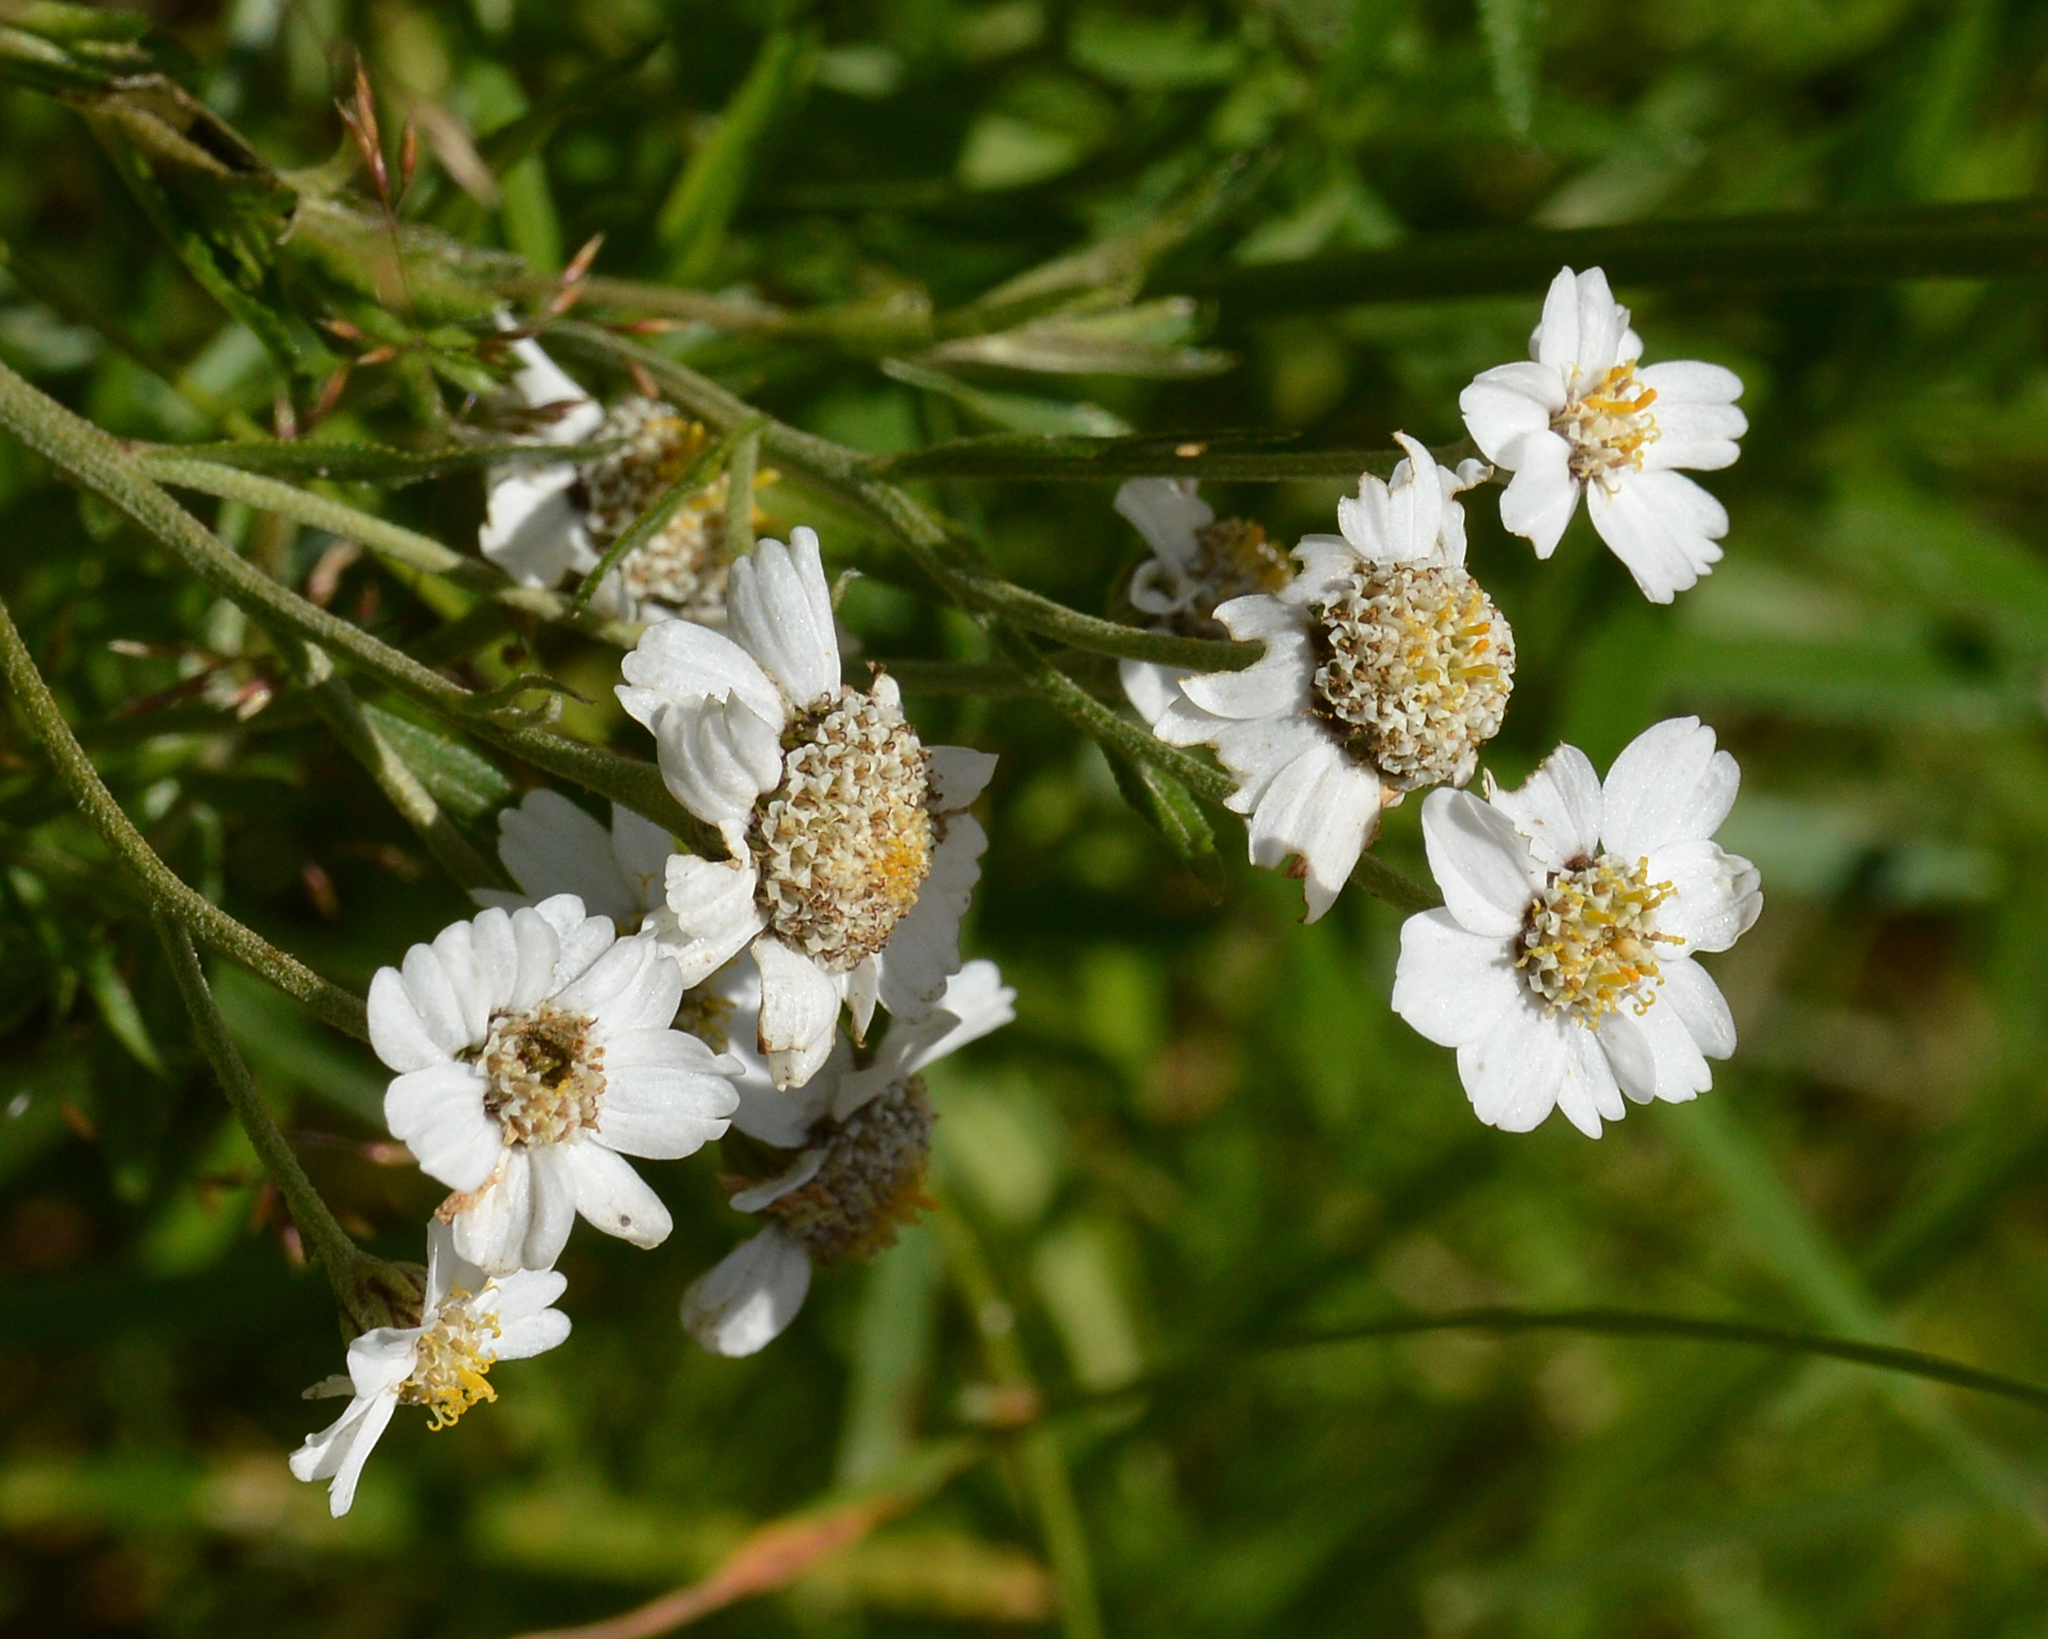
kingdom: Plantae
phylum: Tracheophyta
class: Magnoliopsida
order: Asterales
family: Asteraceae
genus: Achillea
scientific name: Achillea ptarmica
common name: Sneezeweed
